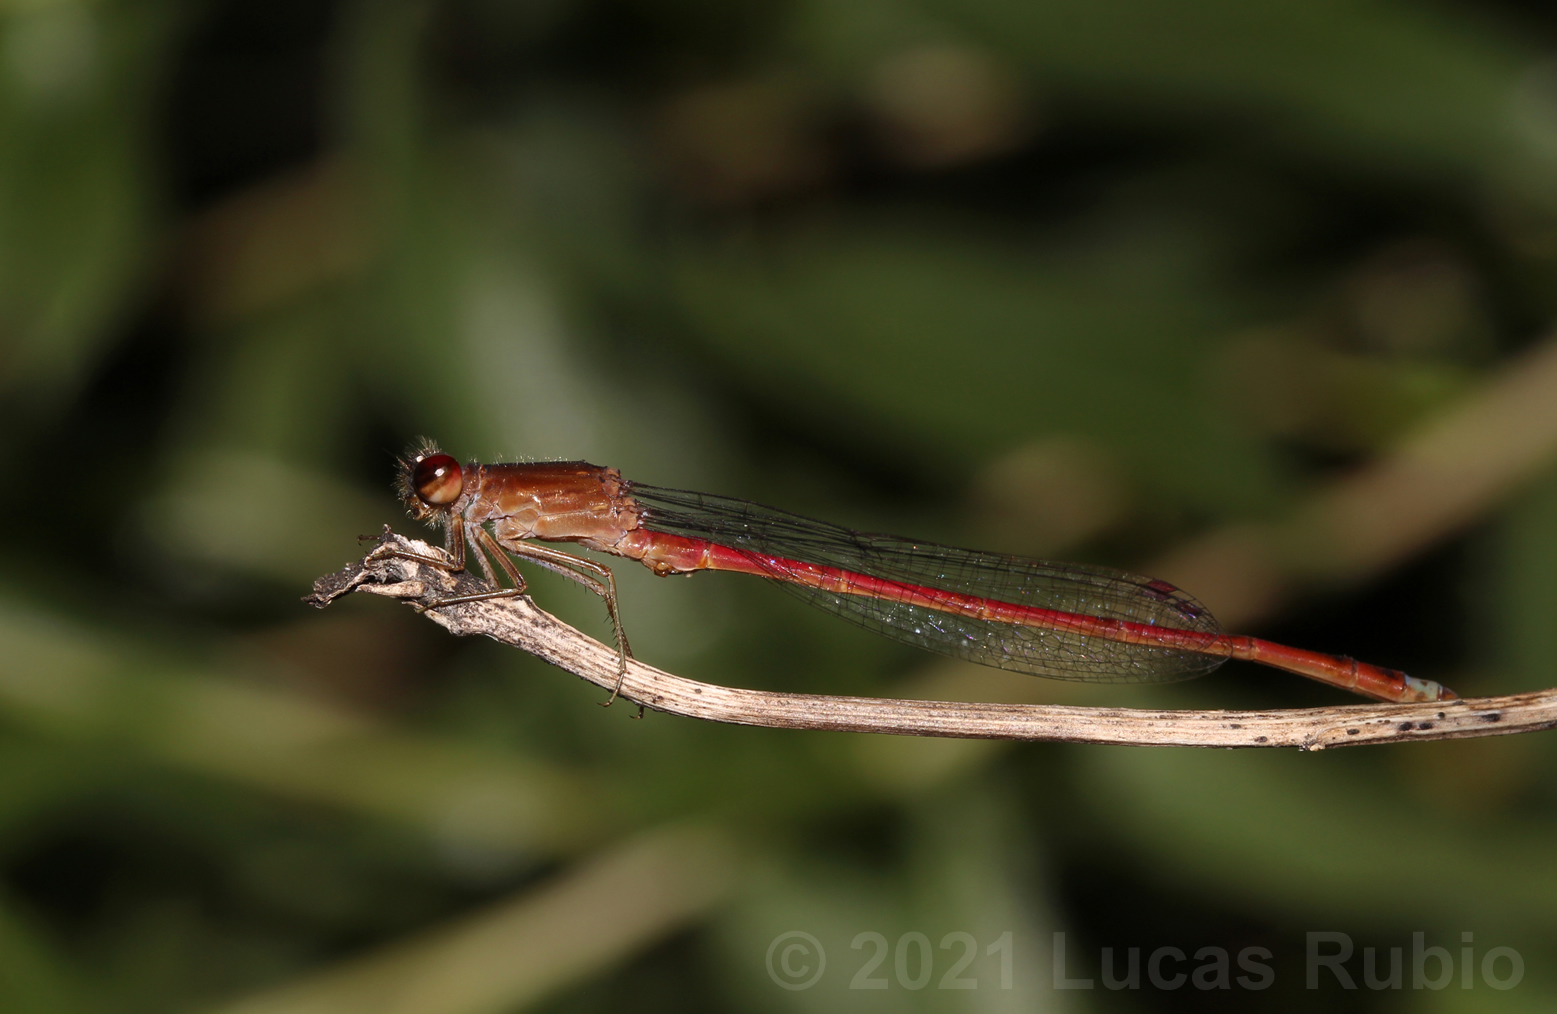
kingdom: Animalia
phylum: Arthropoda
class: Insecta
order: Odonata
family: Coenagrionidae
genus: Oxyagrion
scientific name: Oxyagrion rubidum
